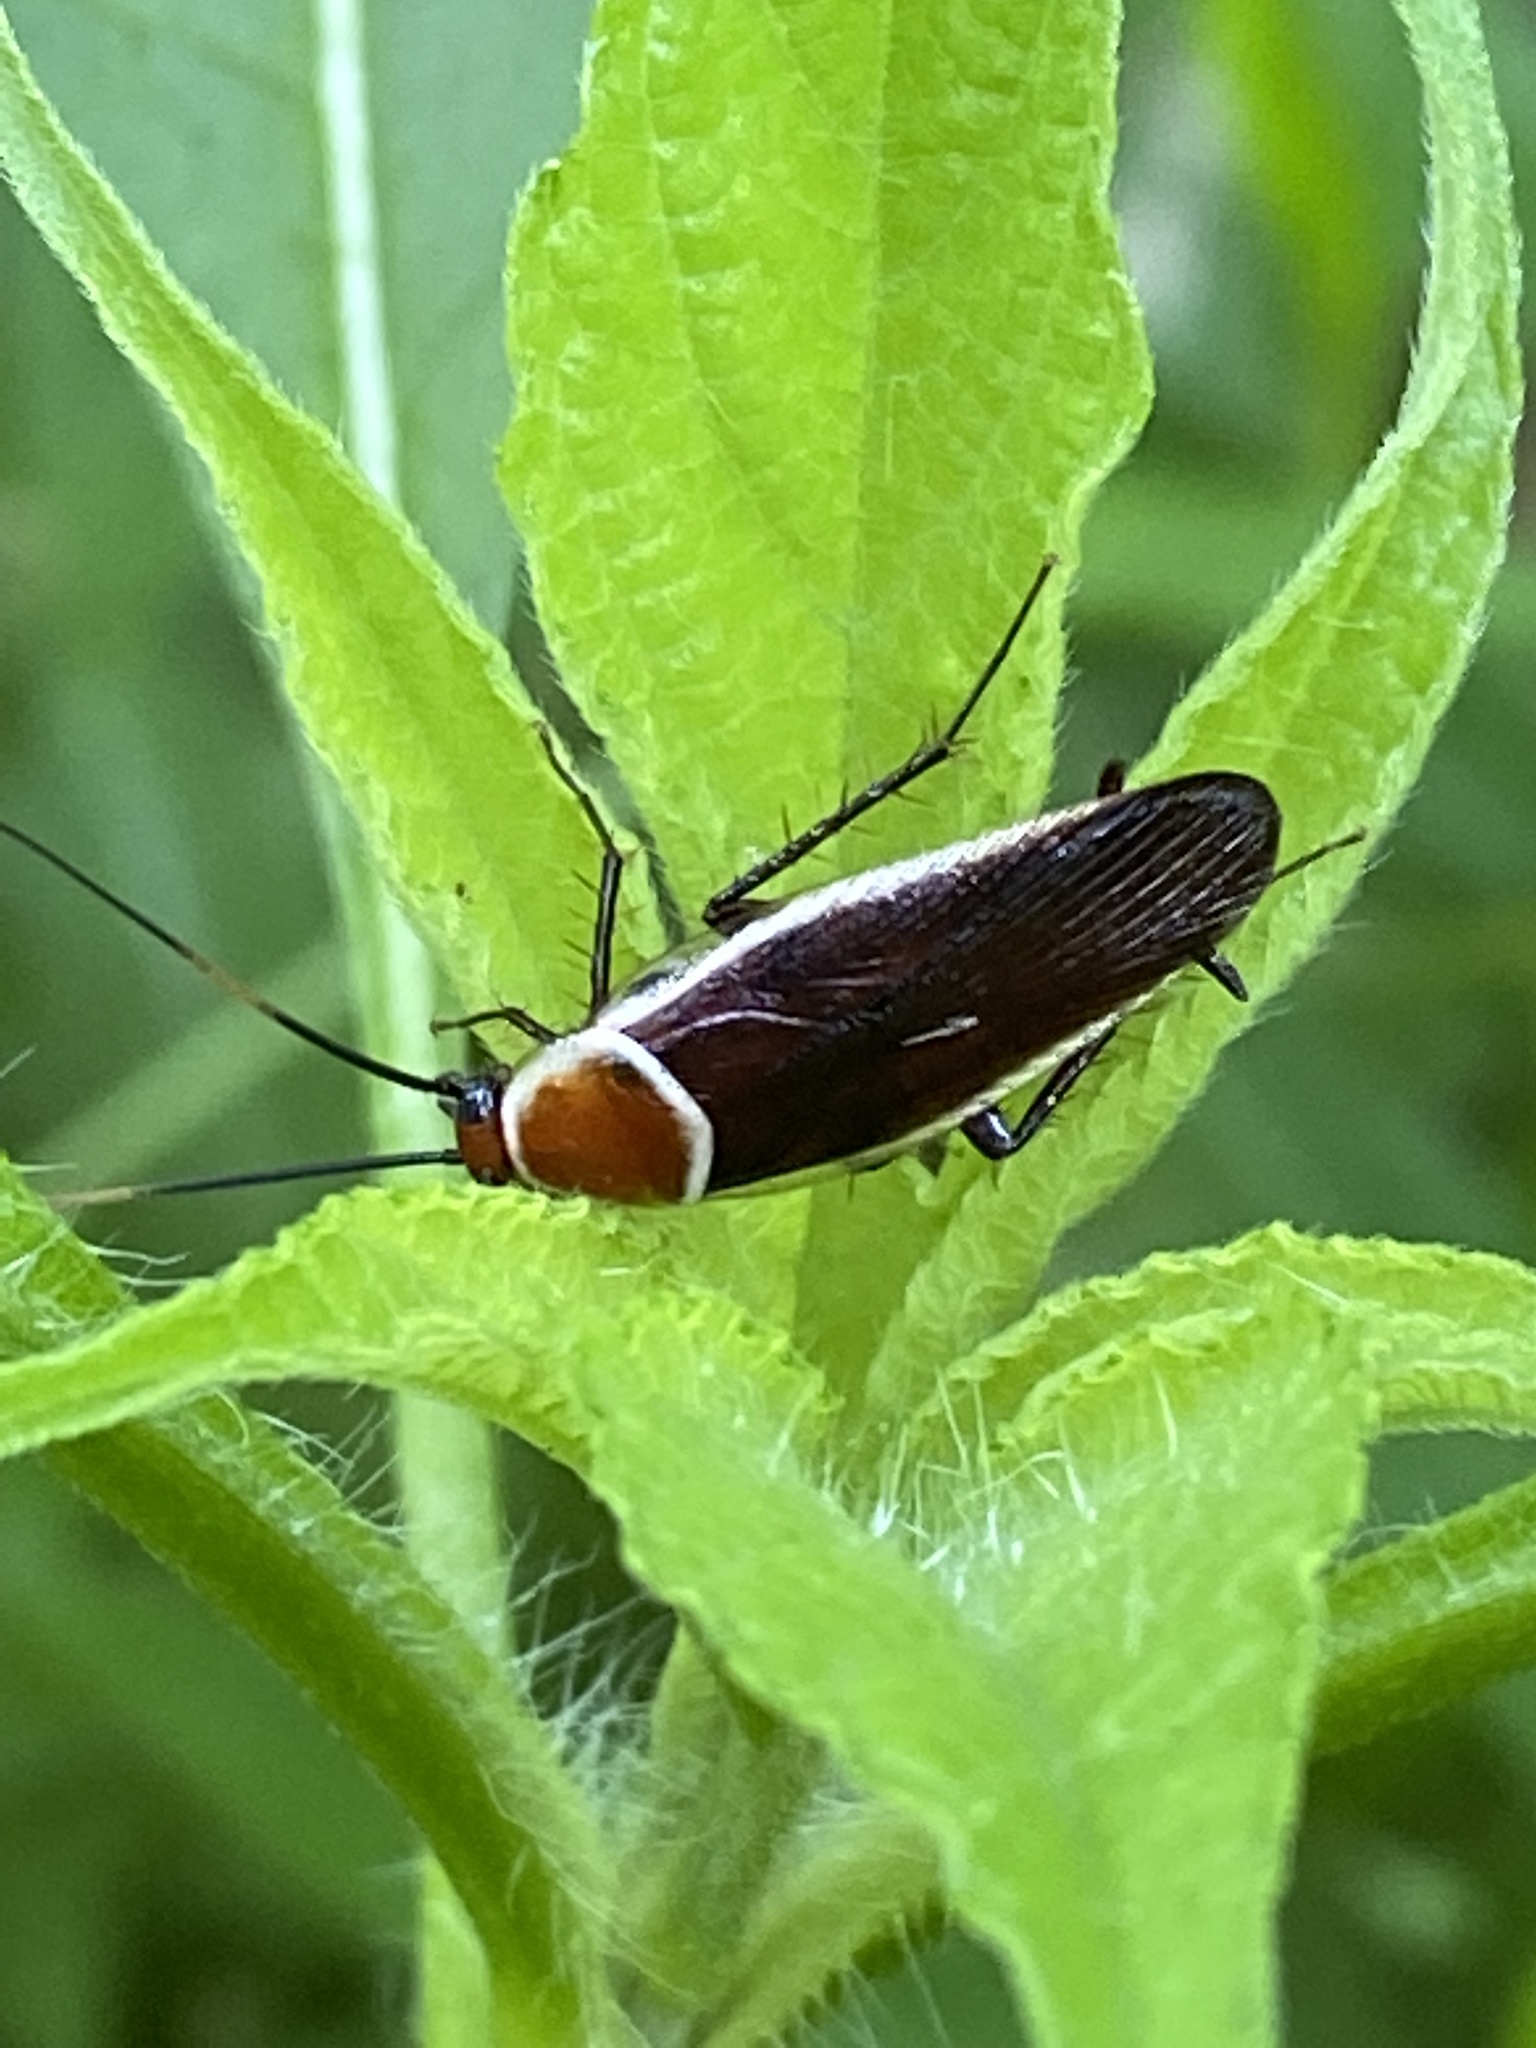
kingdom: Animalia
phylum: Arthropoda
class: Insecta
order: Blattodea
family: Ectobiidae
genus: Pseudomops
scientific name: Pseudomops septentrionalis
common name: Pale-bordered field cockroach
